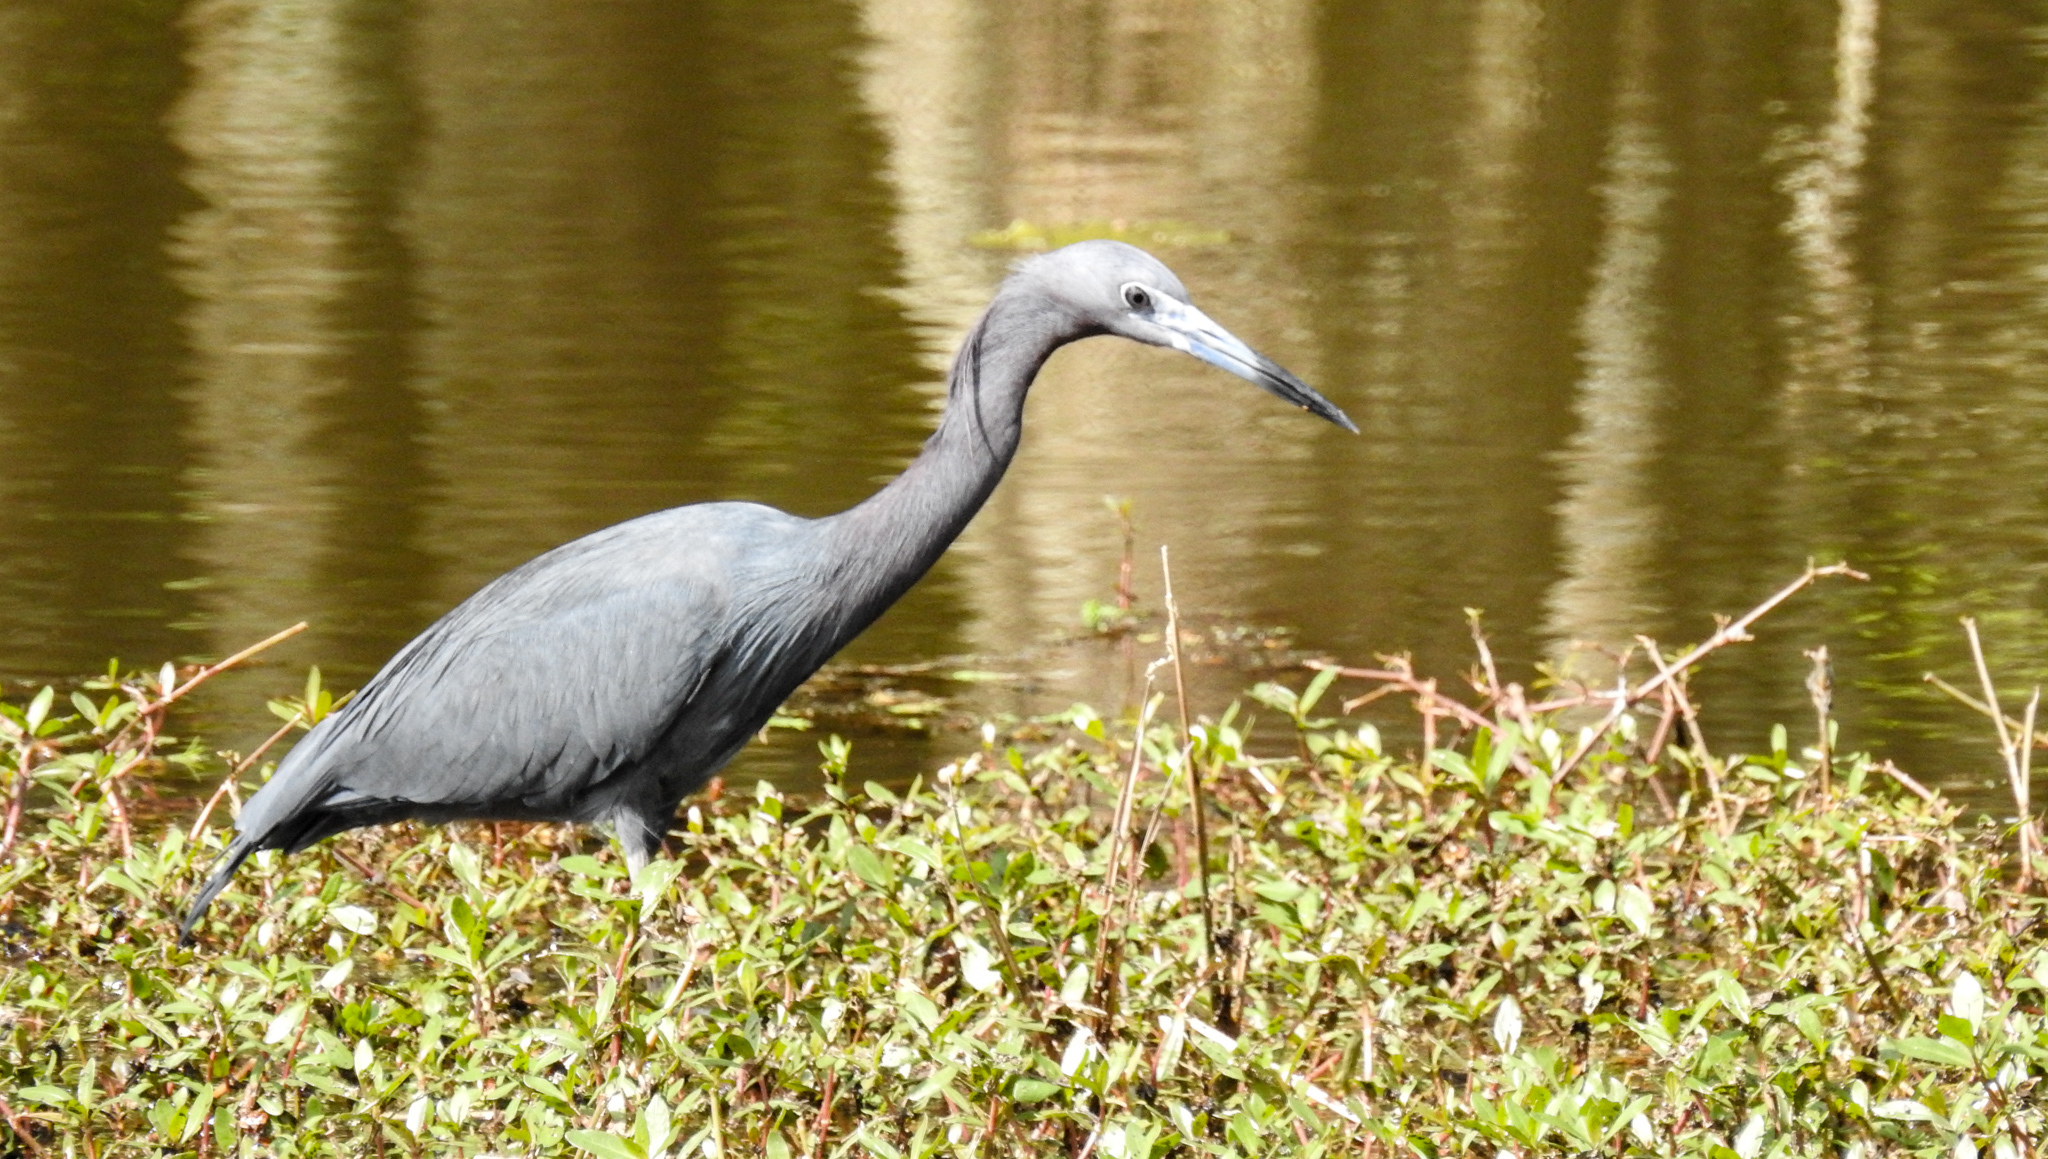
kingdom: Animalia
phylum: Chordata
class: Aves
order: Pelecaniformes
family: Ardeidae
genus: Egretta
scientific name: Egretta caerulea
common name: Little blue heron
